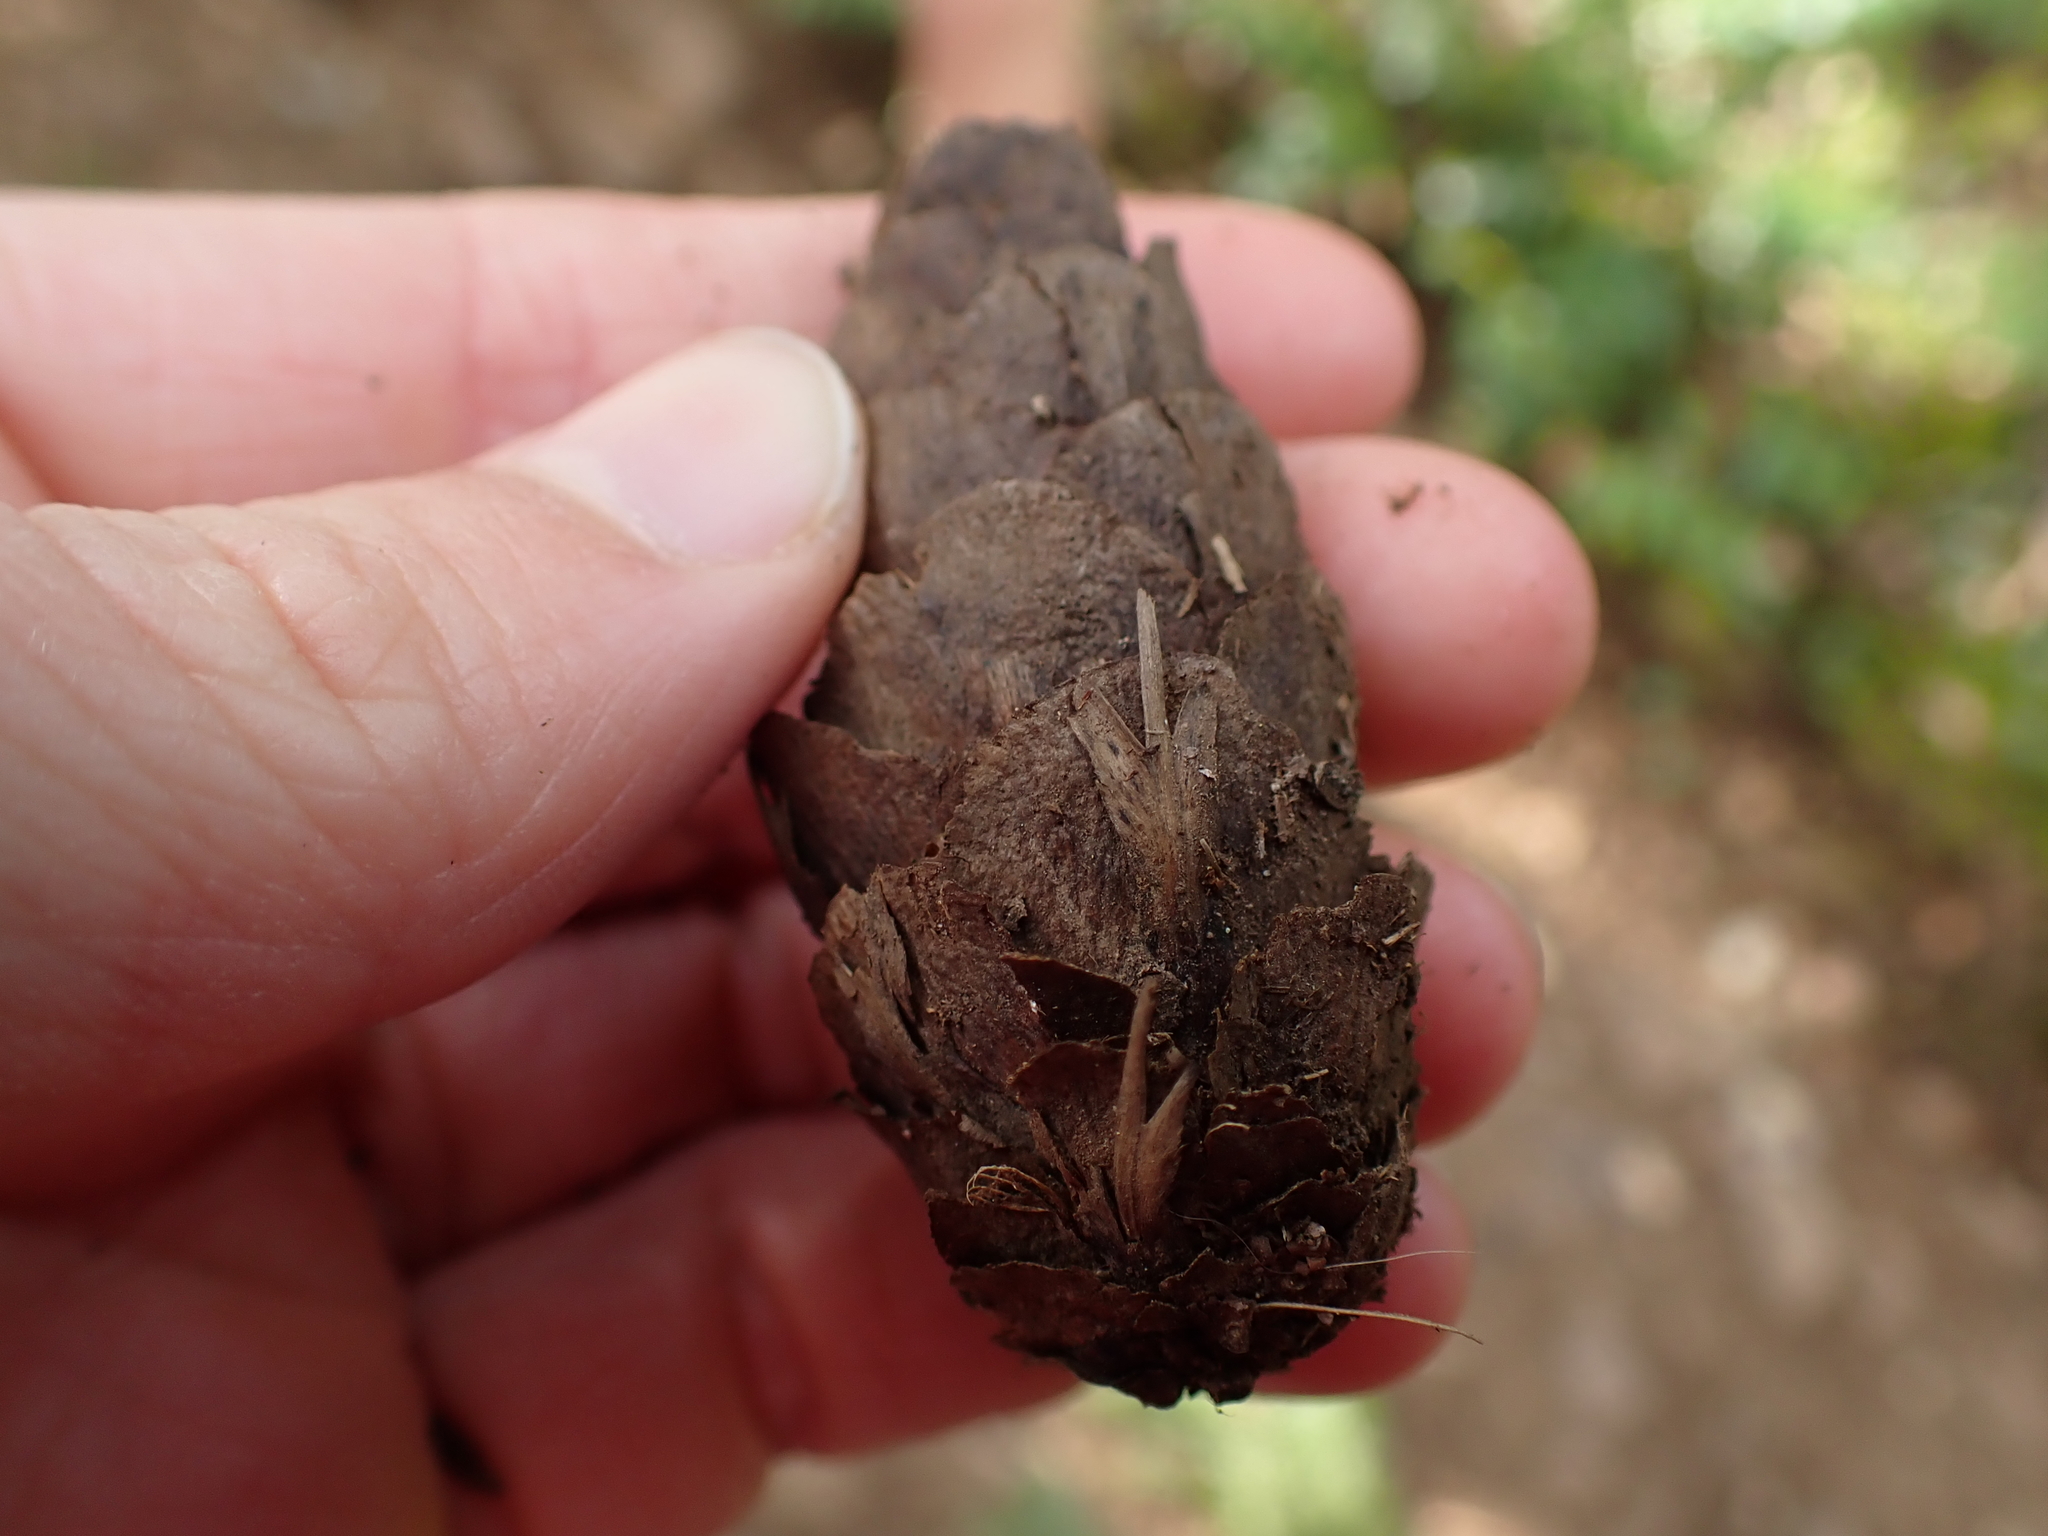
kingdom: Plantae
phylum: Tracheophyta
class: Pinopsida
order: Pinales
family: Pinaceae
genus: Pseudotsuga
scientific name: Pseudotsuga menziesii
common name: Douglas fir
